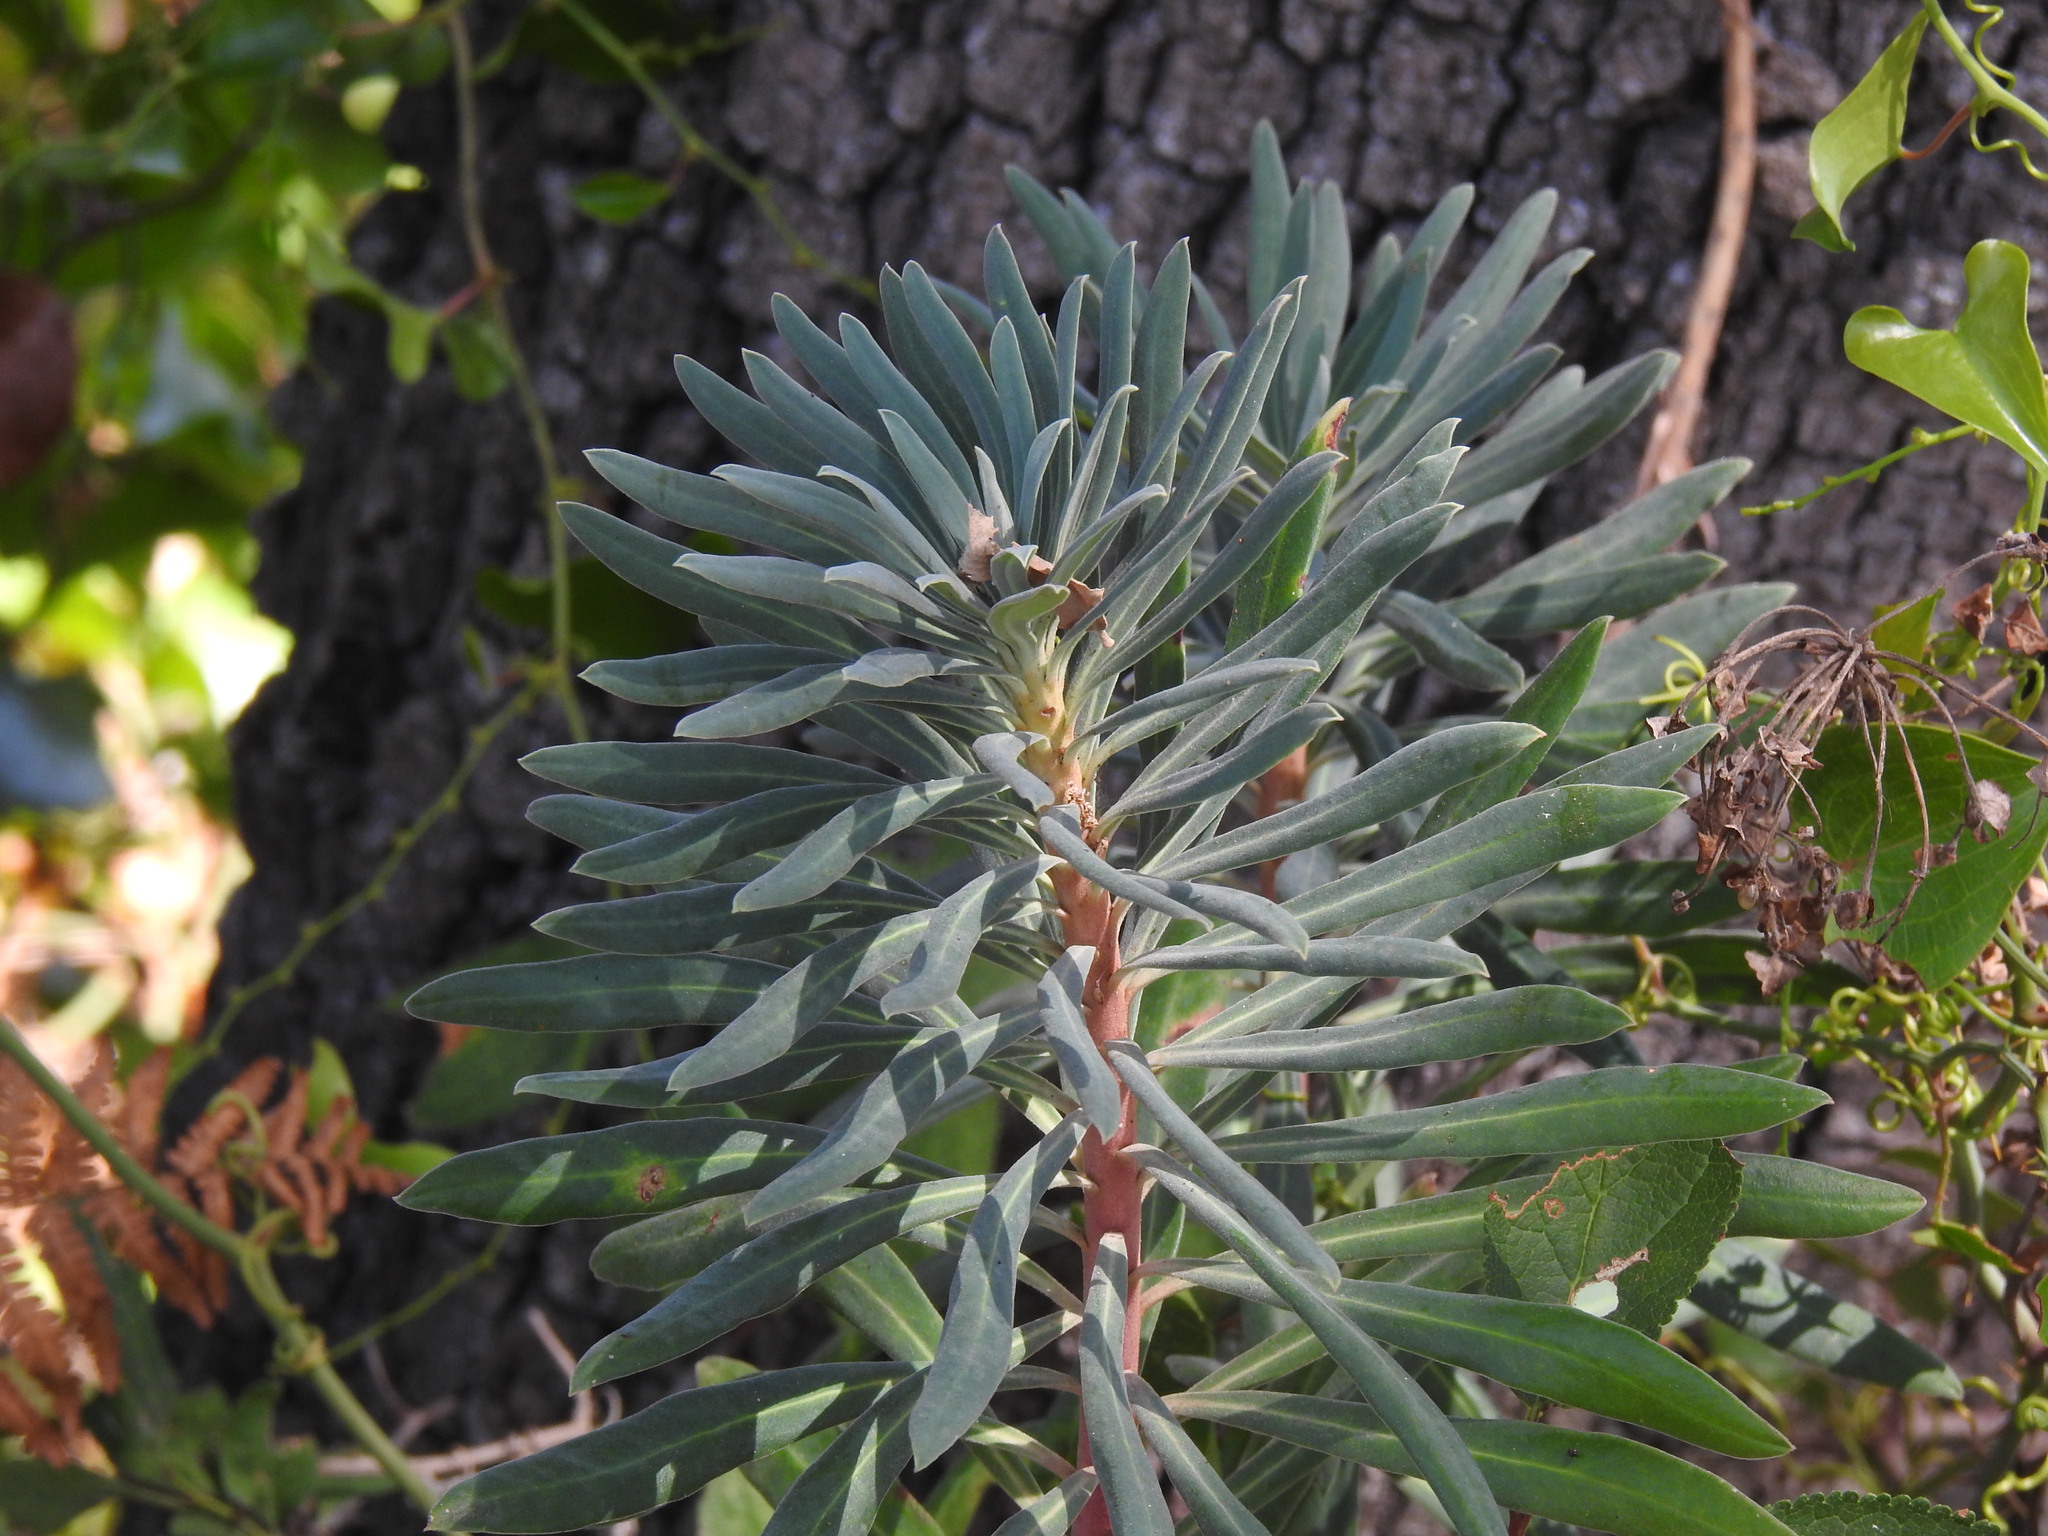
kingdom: Plantae
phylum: Tracheophyta
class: Magnoliopsida
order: Malpighiales
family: Euphorbiaceae
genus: Euphorbia
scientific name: Euphorbia characias
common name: Mediterranean spurge
